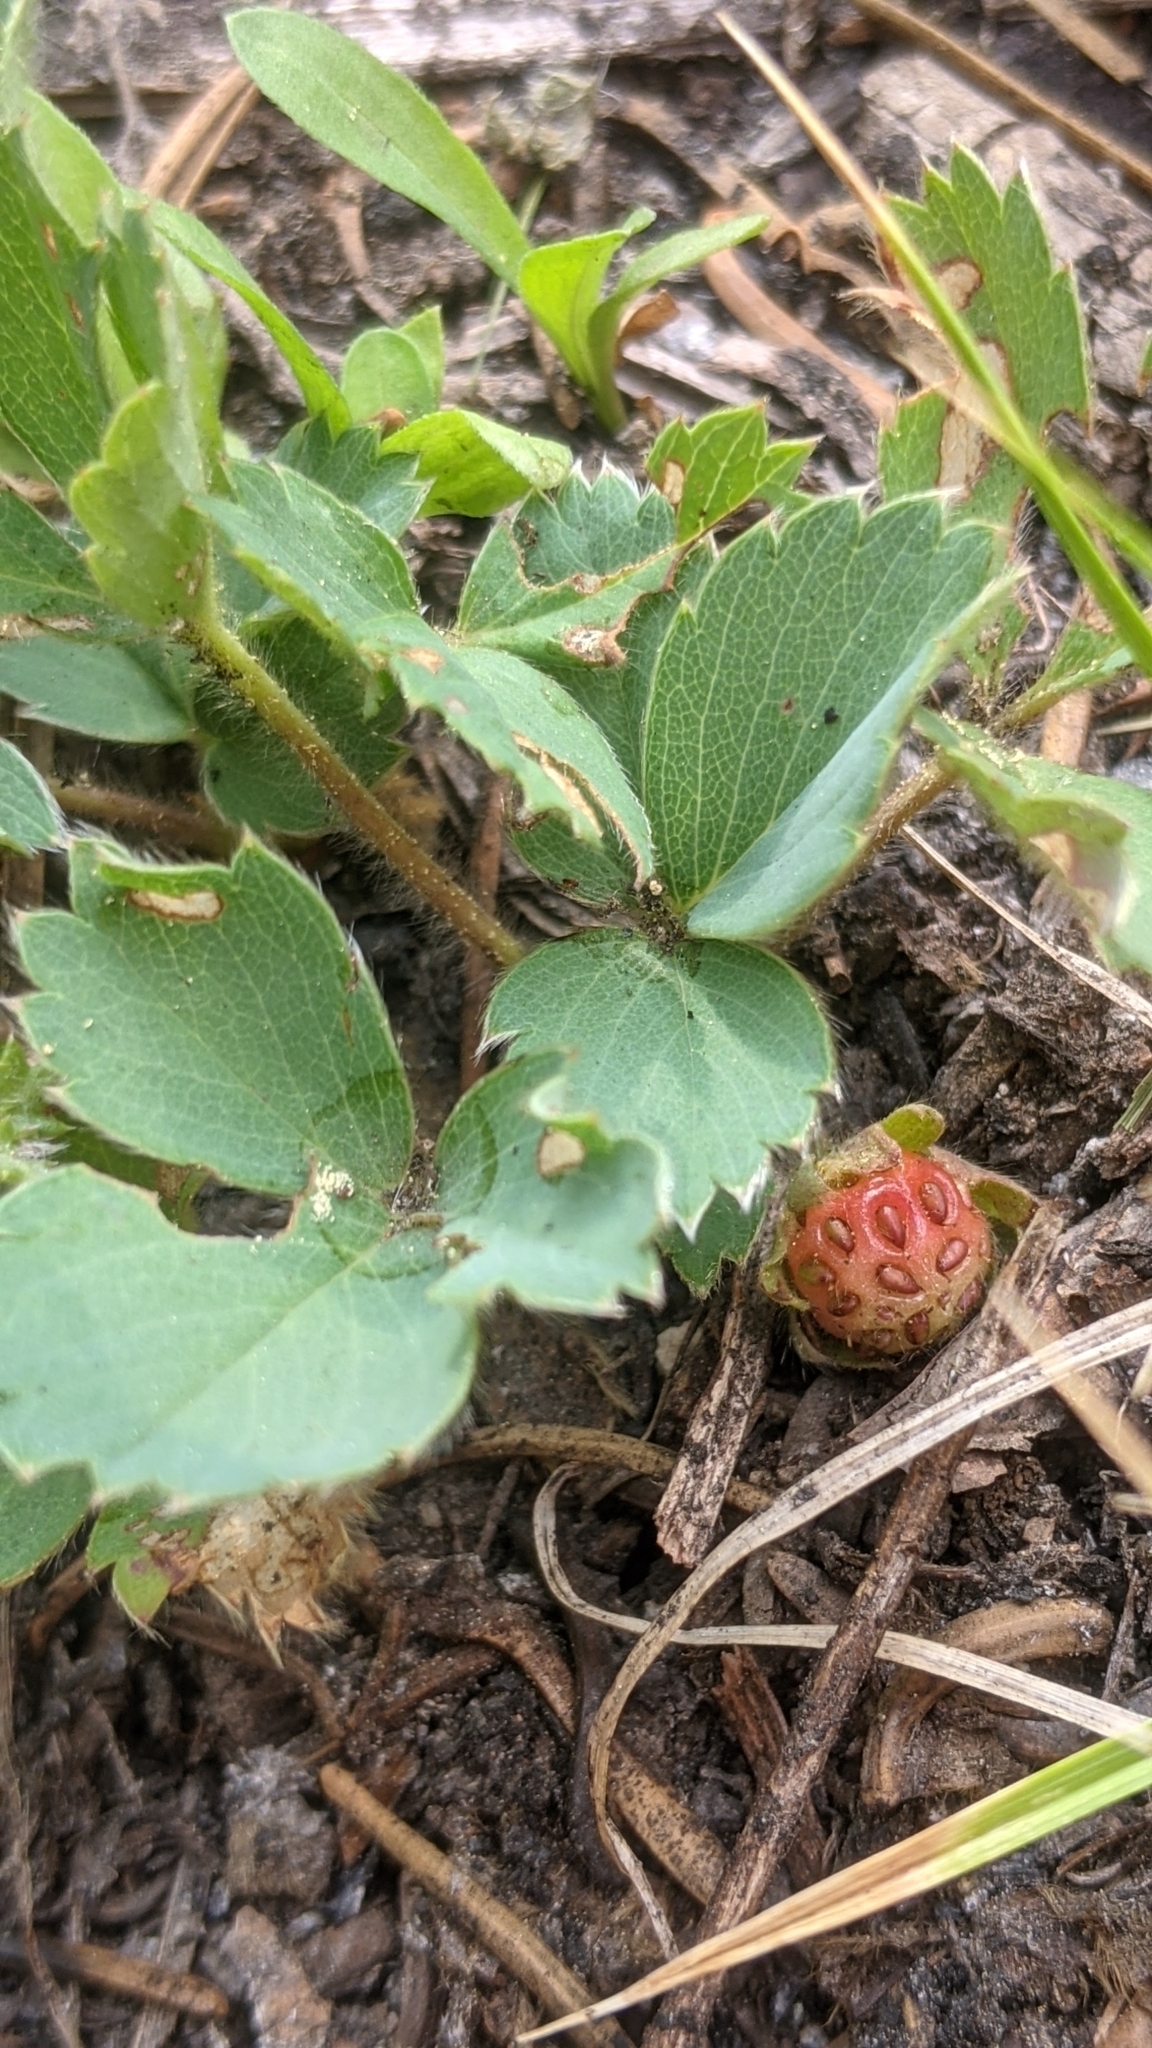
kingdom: Plantae
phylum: Tracheophyta
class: Magnoliopsida
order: Rosales
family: Rosaceae
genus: Fragaria
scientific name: Fragaria virginiana
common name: Thickleaved wild strawberry
